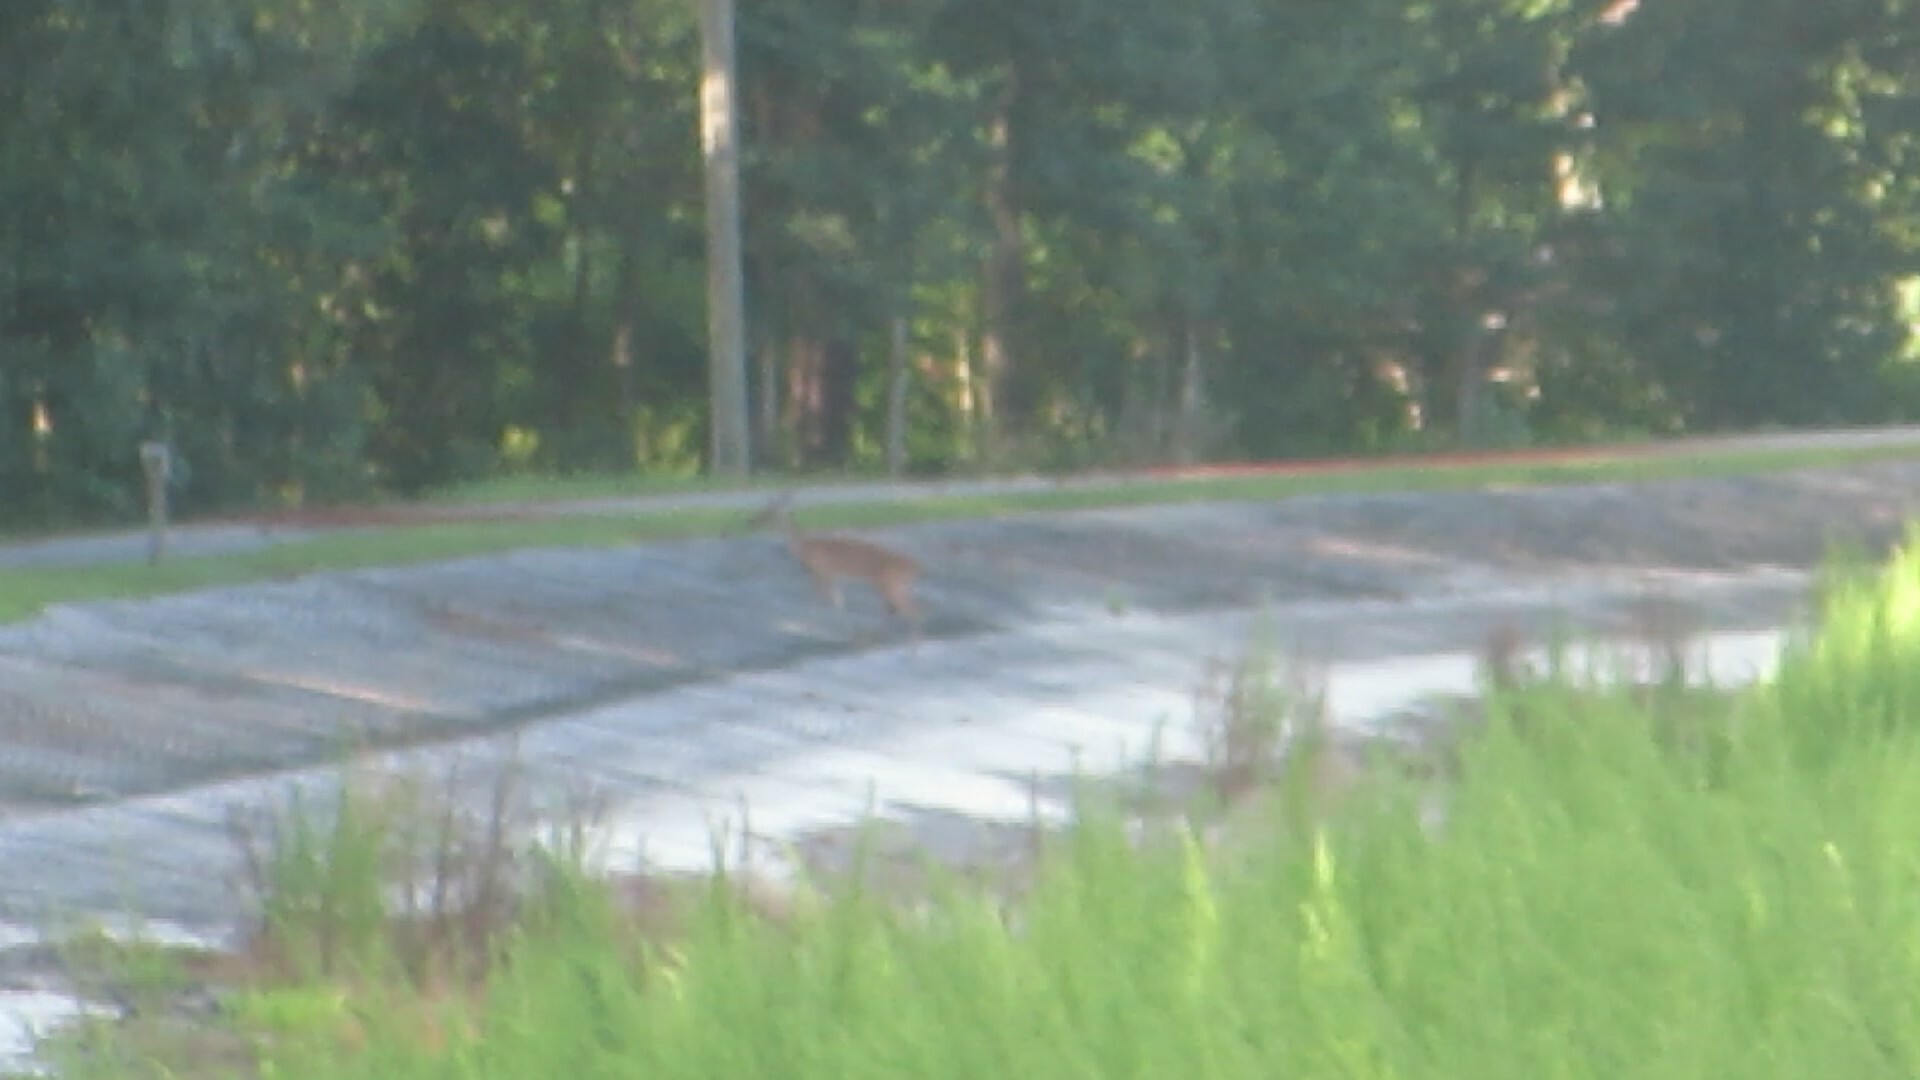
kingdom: Animalia
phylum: Chordata
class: Mammalia
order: Artiodactyla
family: Cervidae
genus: Odocoileus
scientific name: Odocoileus virginianus
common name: White-tailed deer
